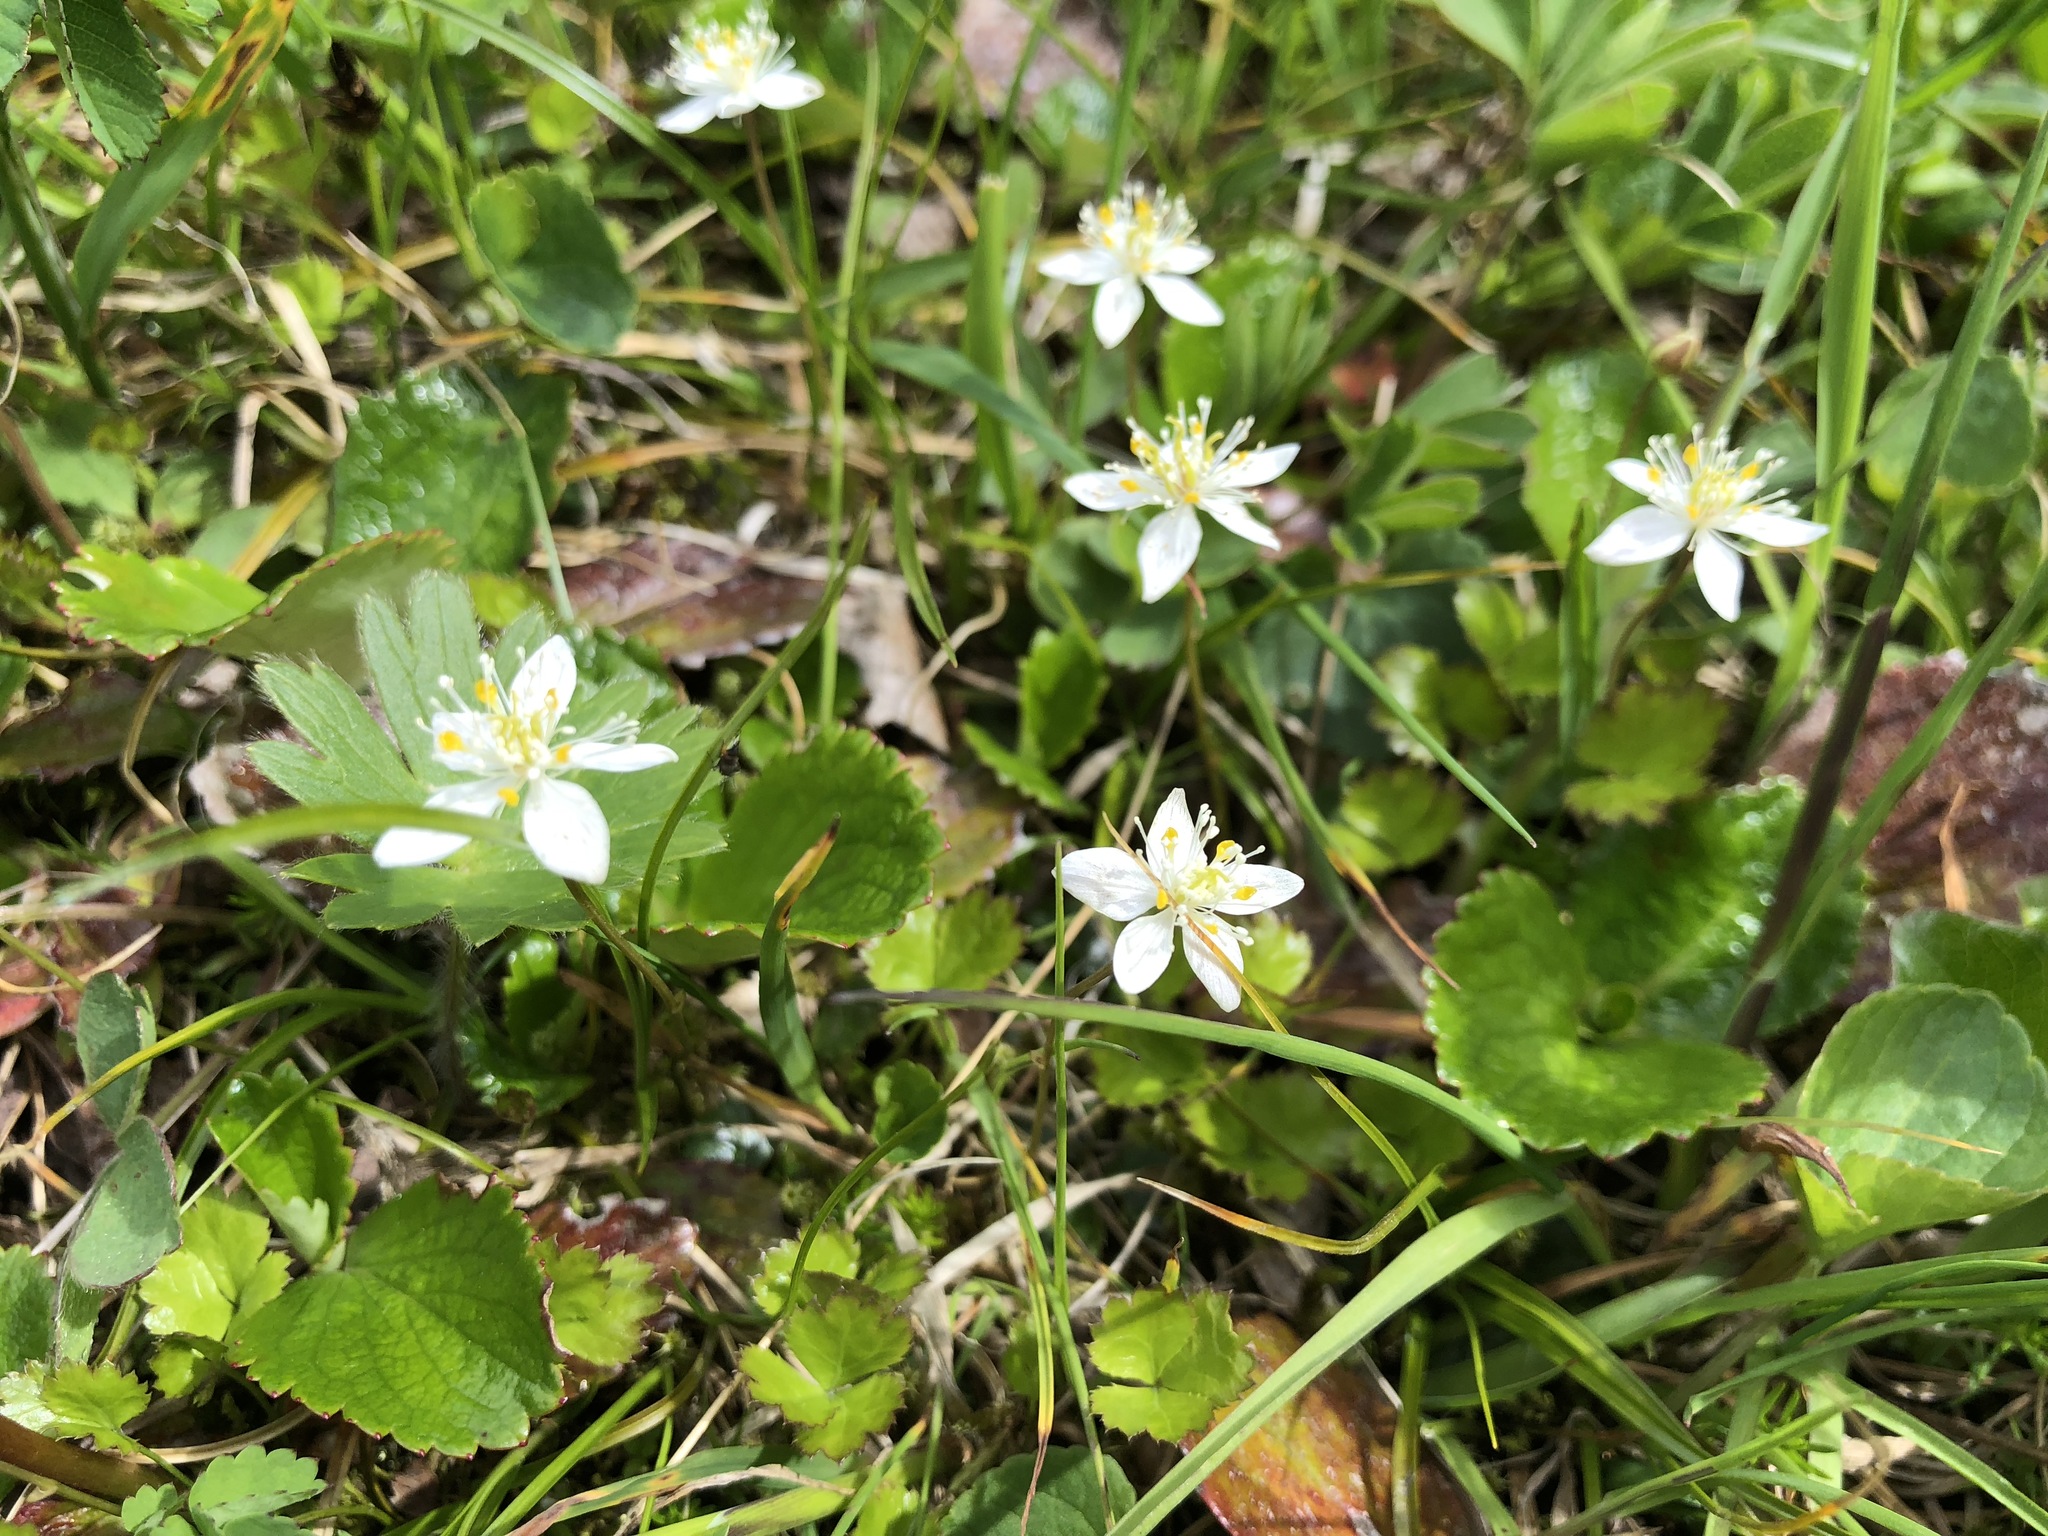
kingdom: Plantae
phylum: Tracheophyta
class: Magnoliopsida
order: Ranunculales
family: Ranunculaceae
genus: Coptis
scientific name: Coptis trifolia
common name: Canker-root
